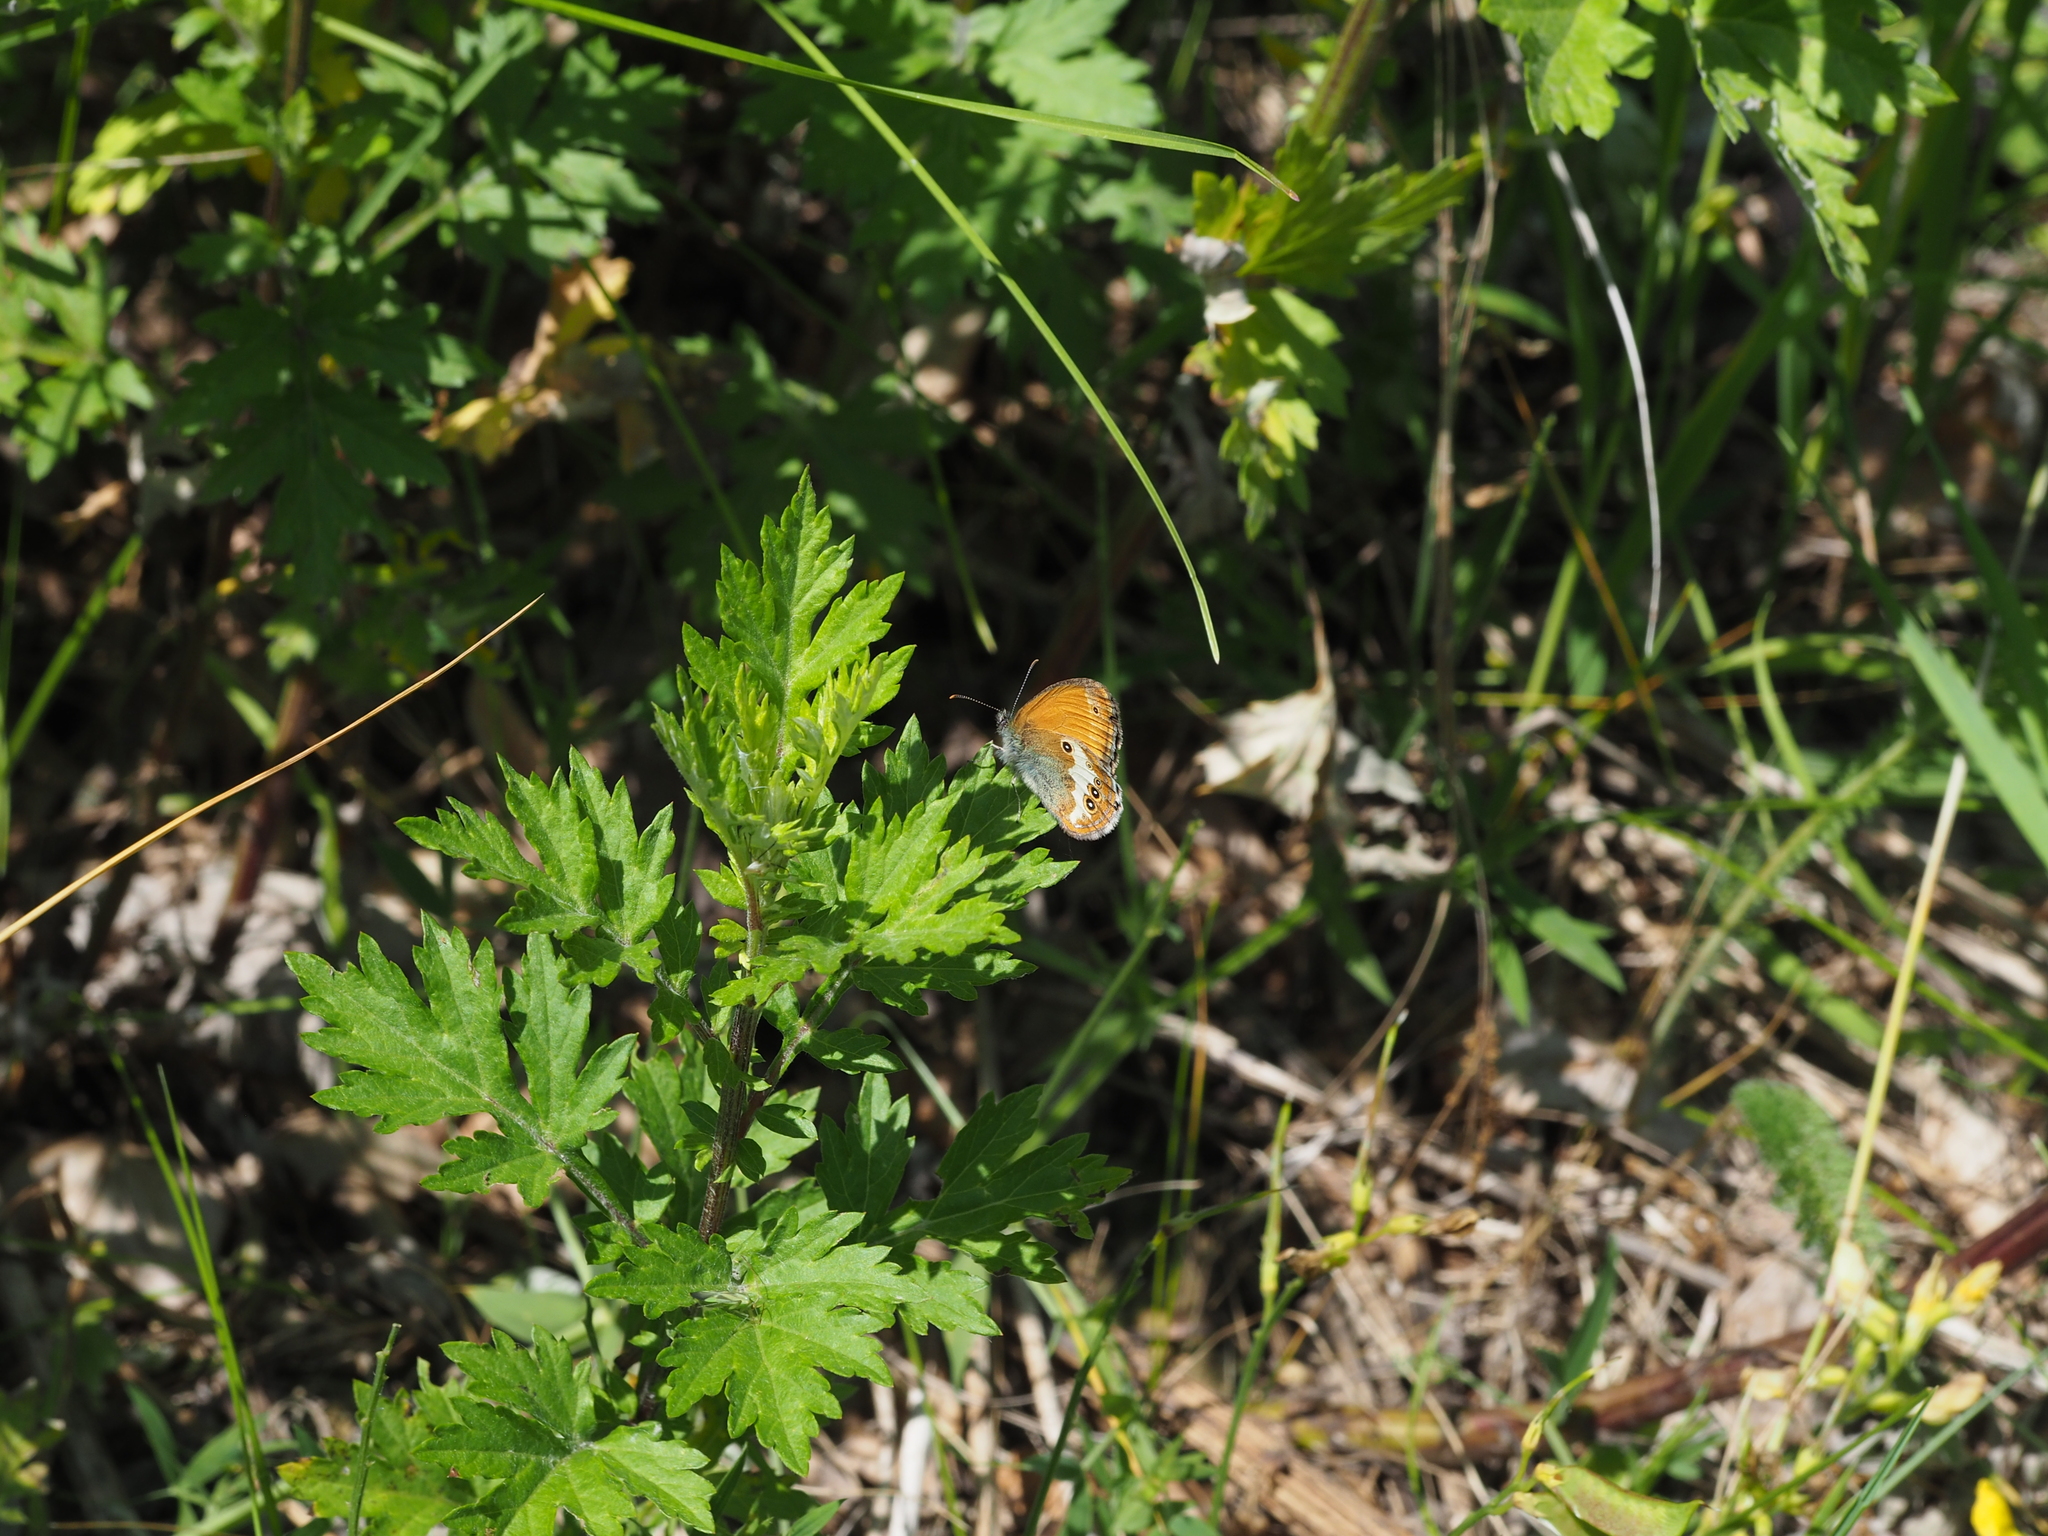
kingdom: Animalia
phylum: Arthropoda
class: Insecta
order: Lepidoptera
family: Nymphalidae
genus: Coenonympha
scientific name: Coenonympha arcania
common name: Pearly heath
